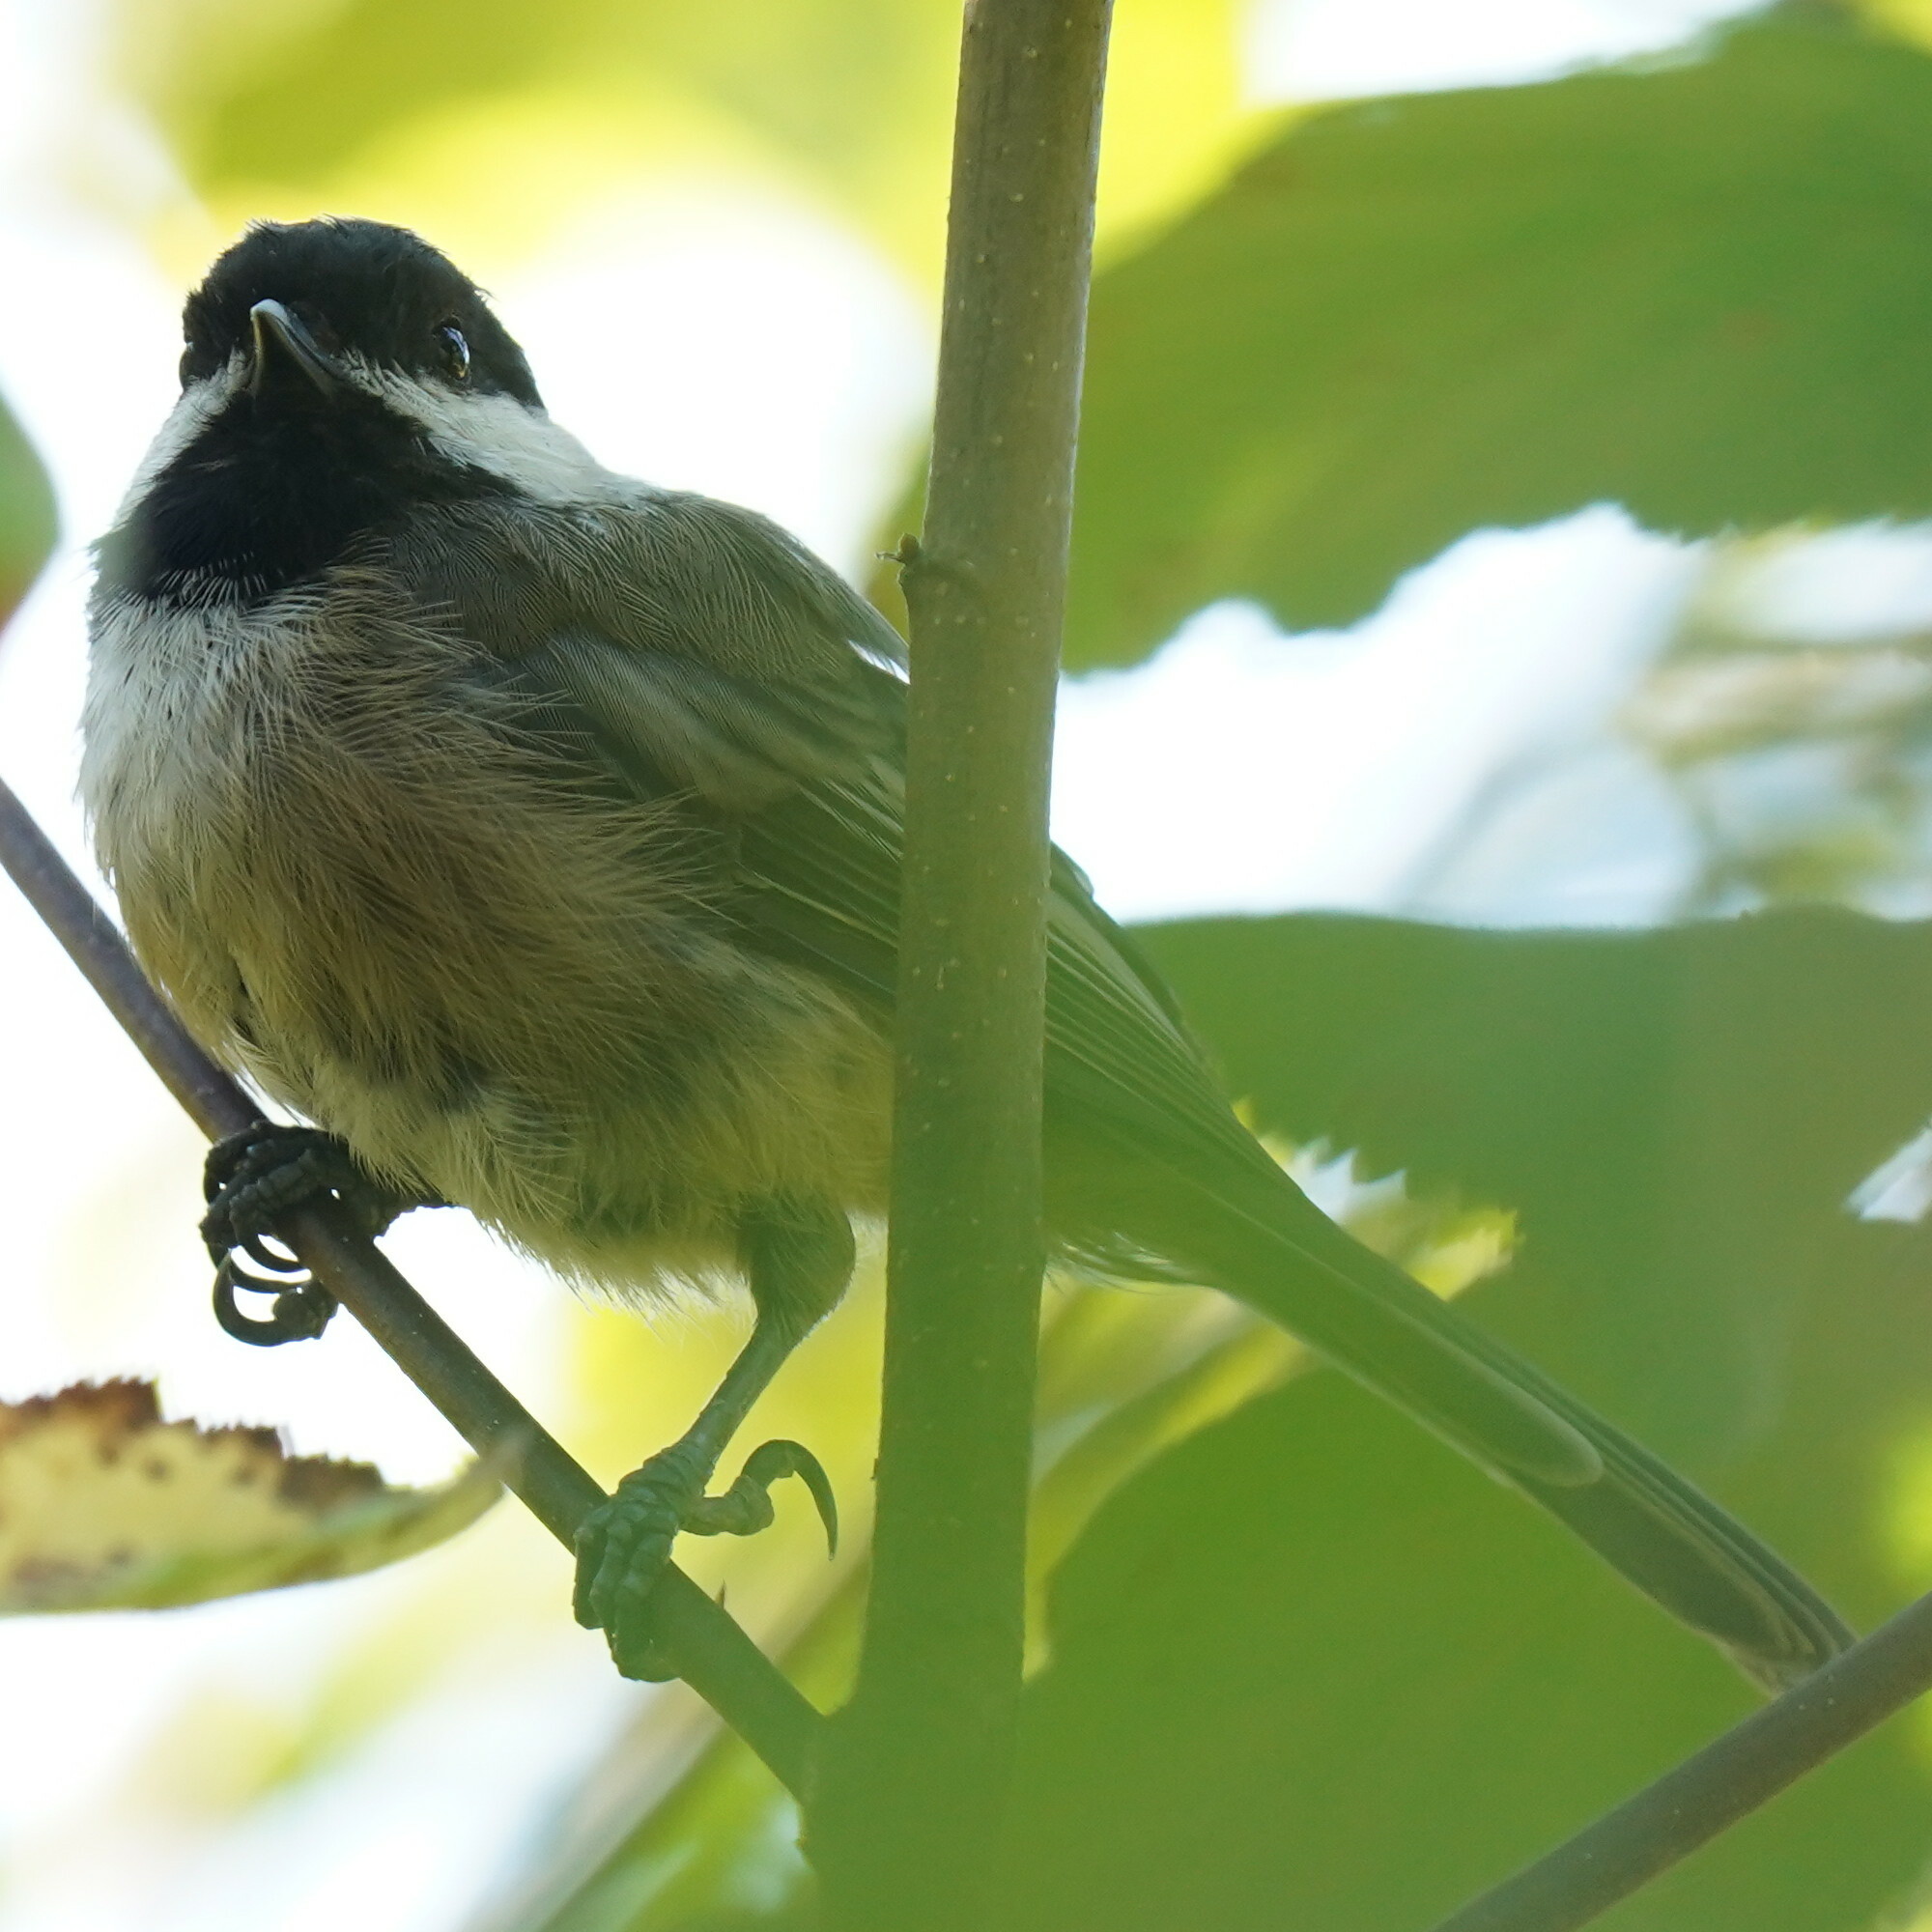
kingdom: Animalia
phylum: Chordata
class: Aves
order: Passeriformes
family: Paridae
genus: Poecile
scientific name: Poecile atricapillus
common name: Black-capped chickadee
